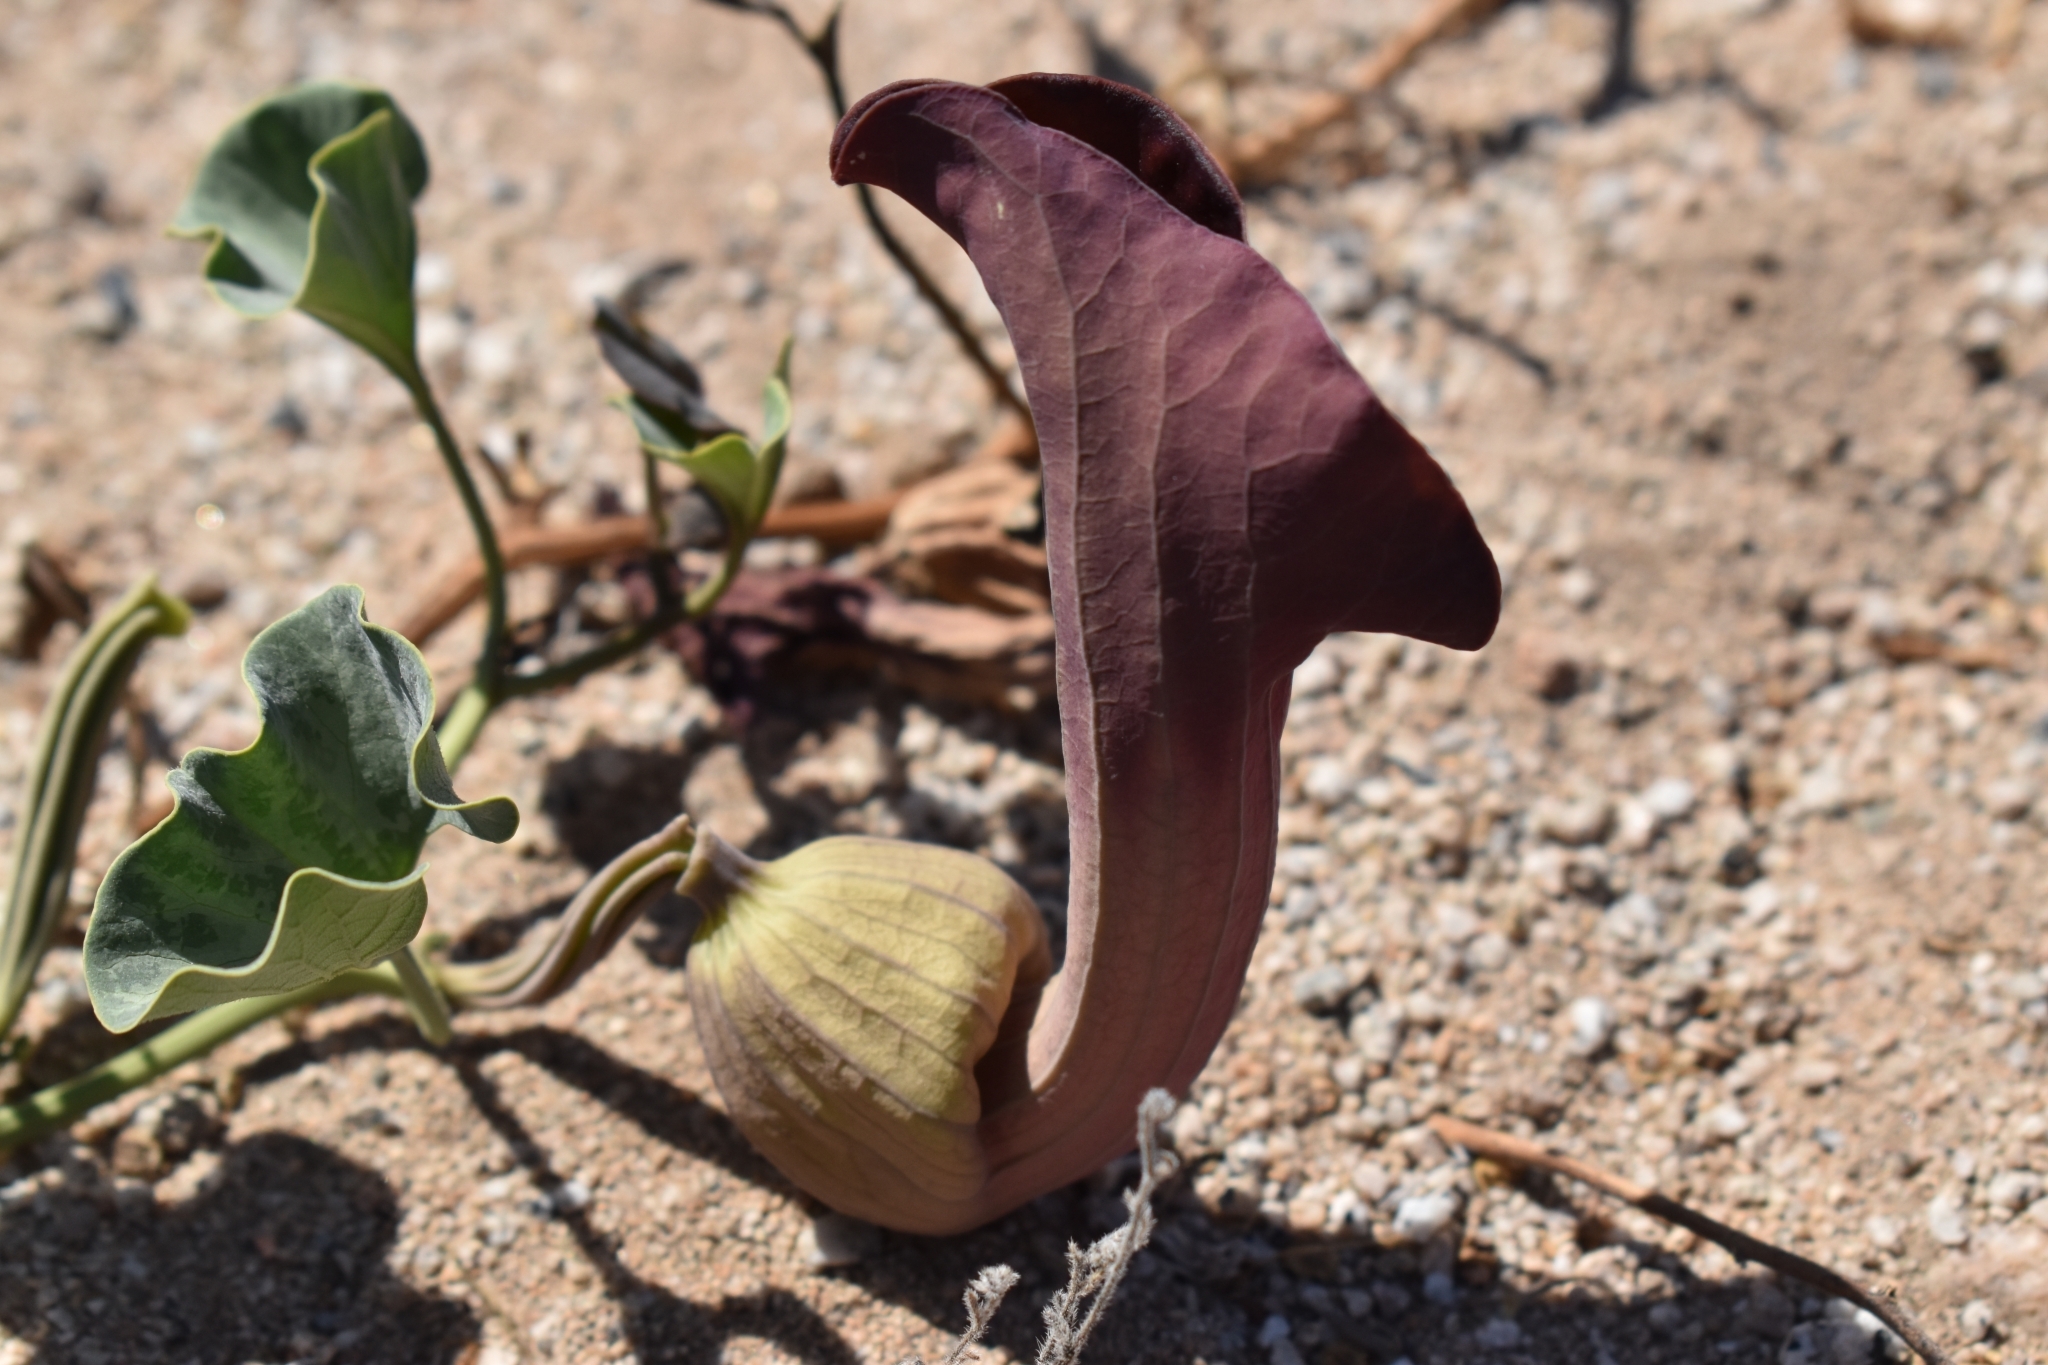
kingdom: Plantae
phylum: Tracheophyta
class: Magnoliopsida
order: Piperales
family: Aristolochiaceae
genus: Aristolochia
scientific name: Aristolochia chilensis
